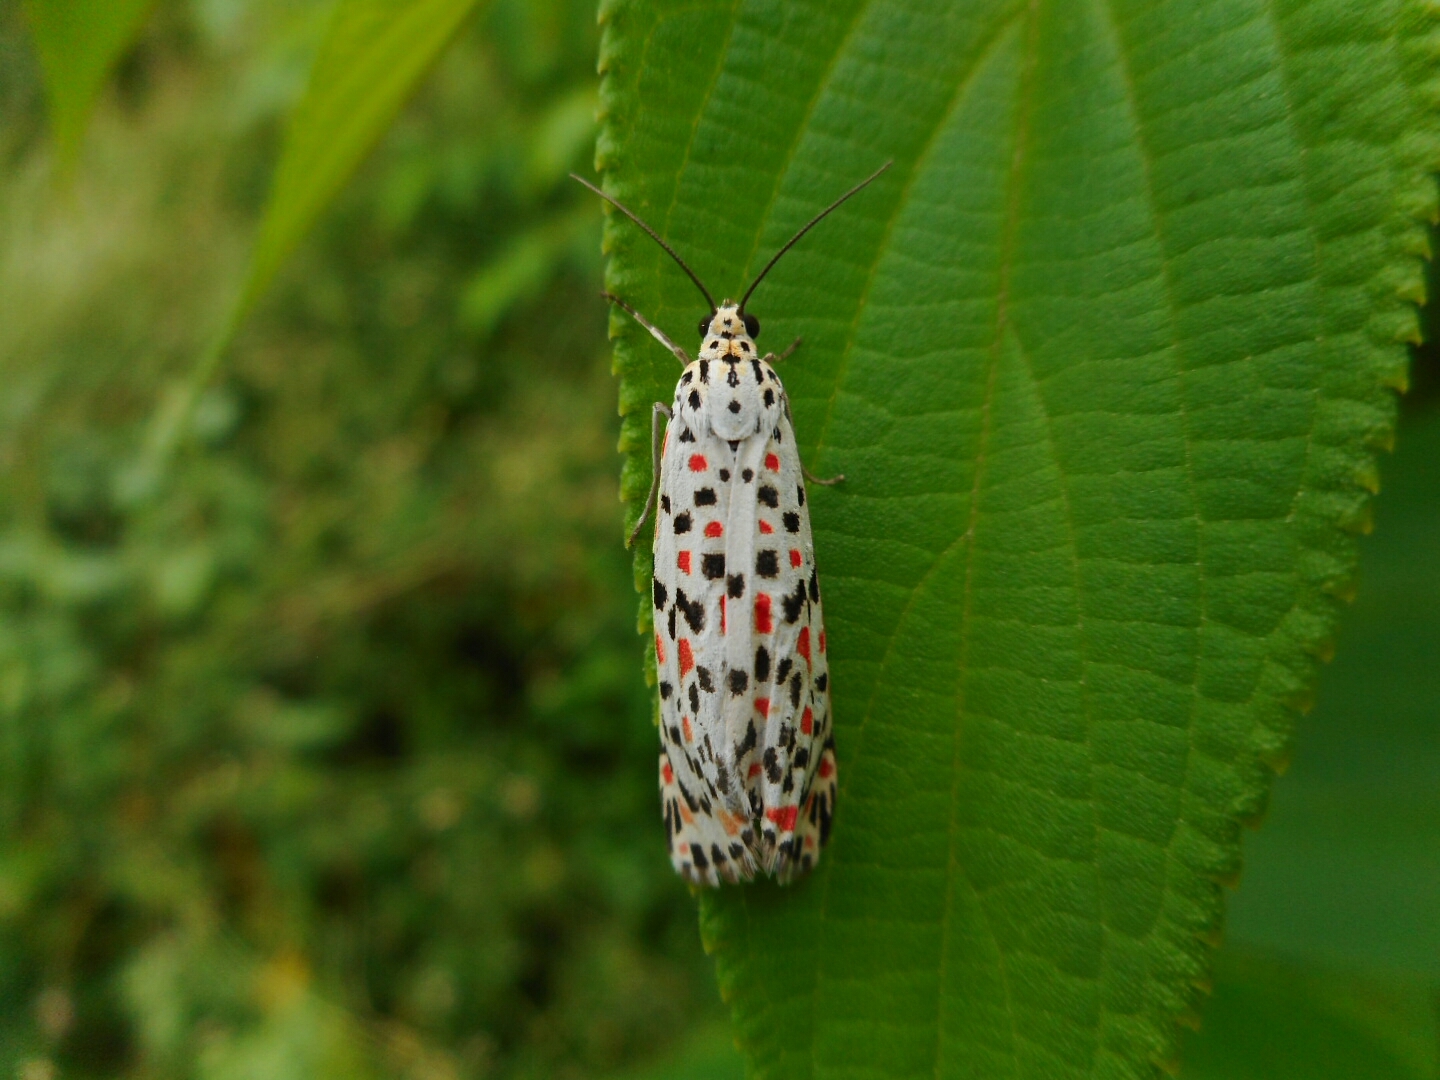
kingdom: Animalia
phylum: Arthropoda
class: Insecta
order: Lepidoptera
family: Erebidae
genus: Utetheisa
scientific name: Utetheisa pulchelloides
